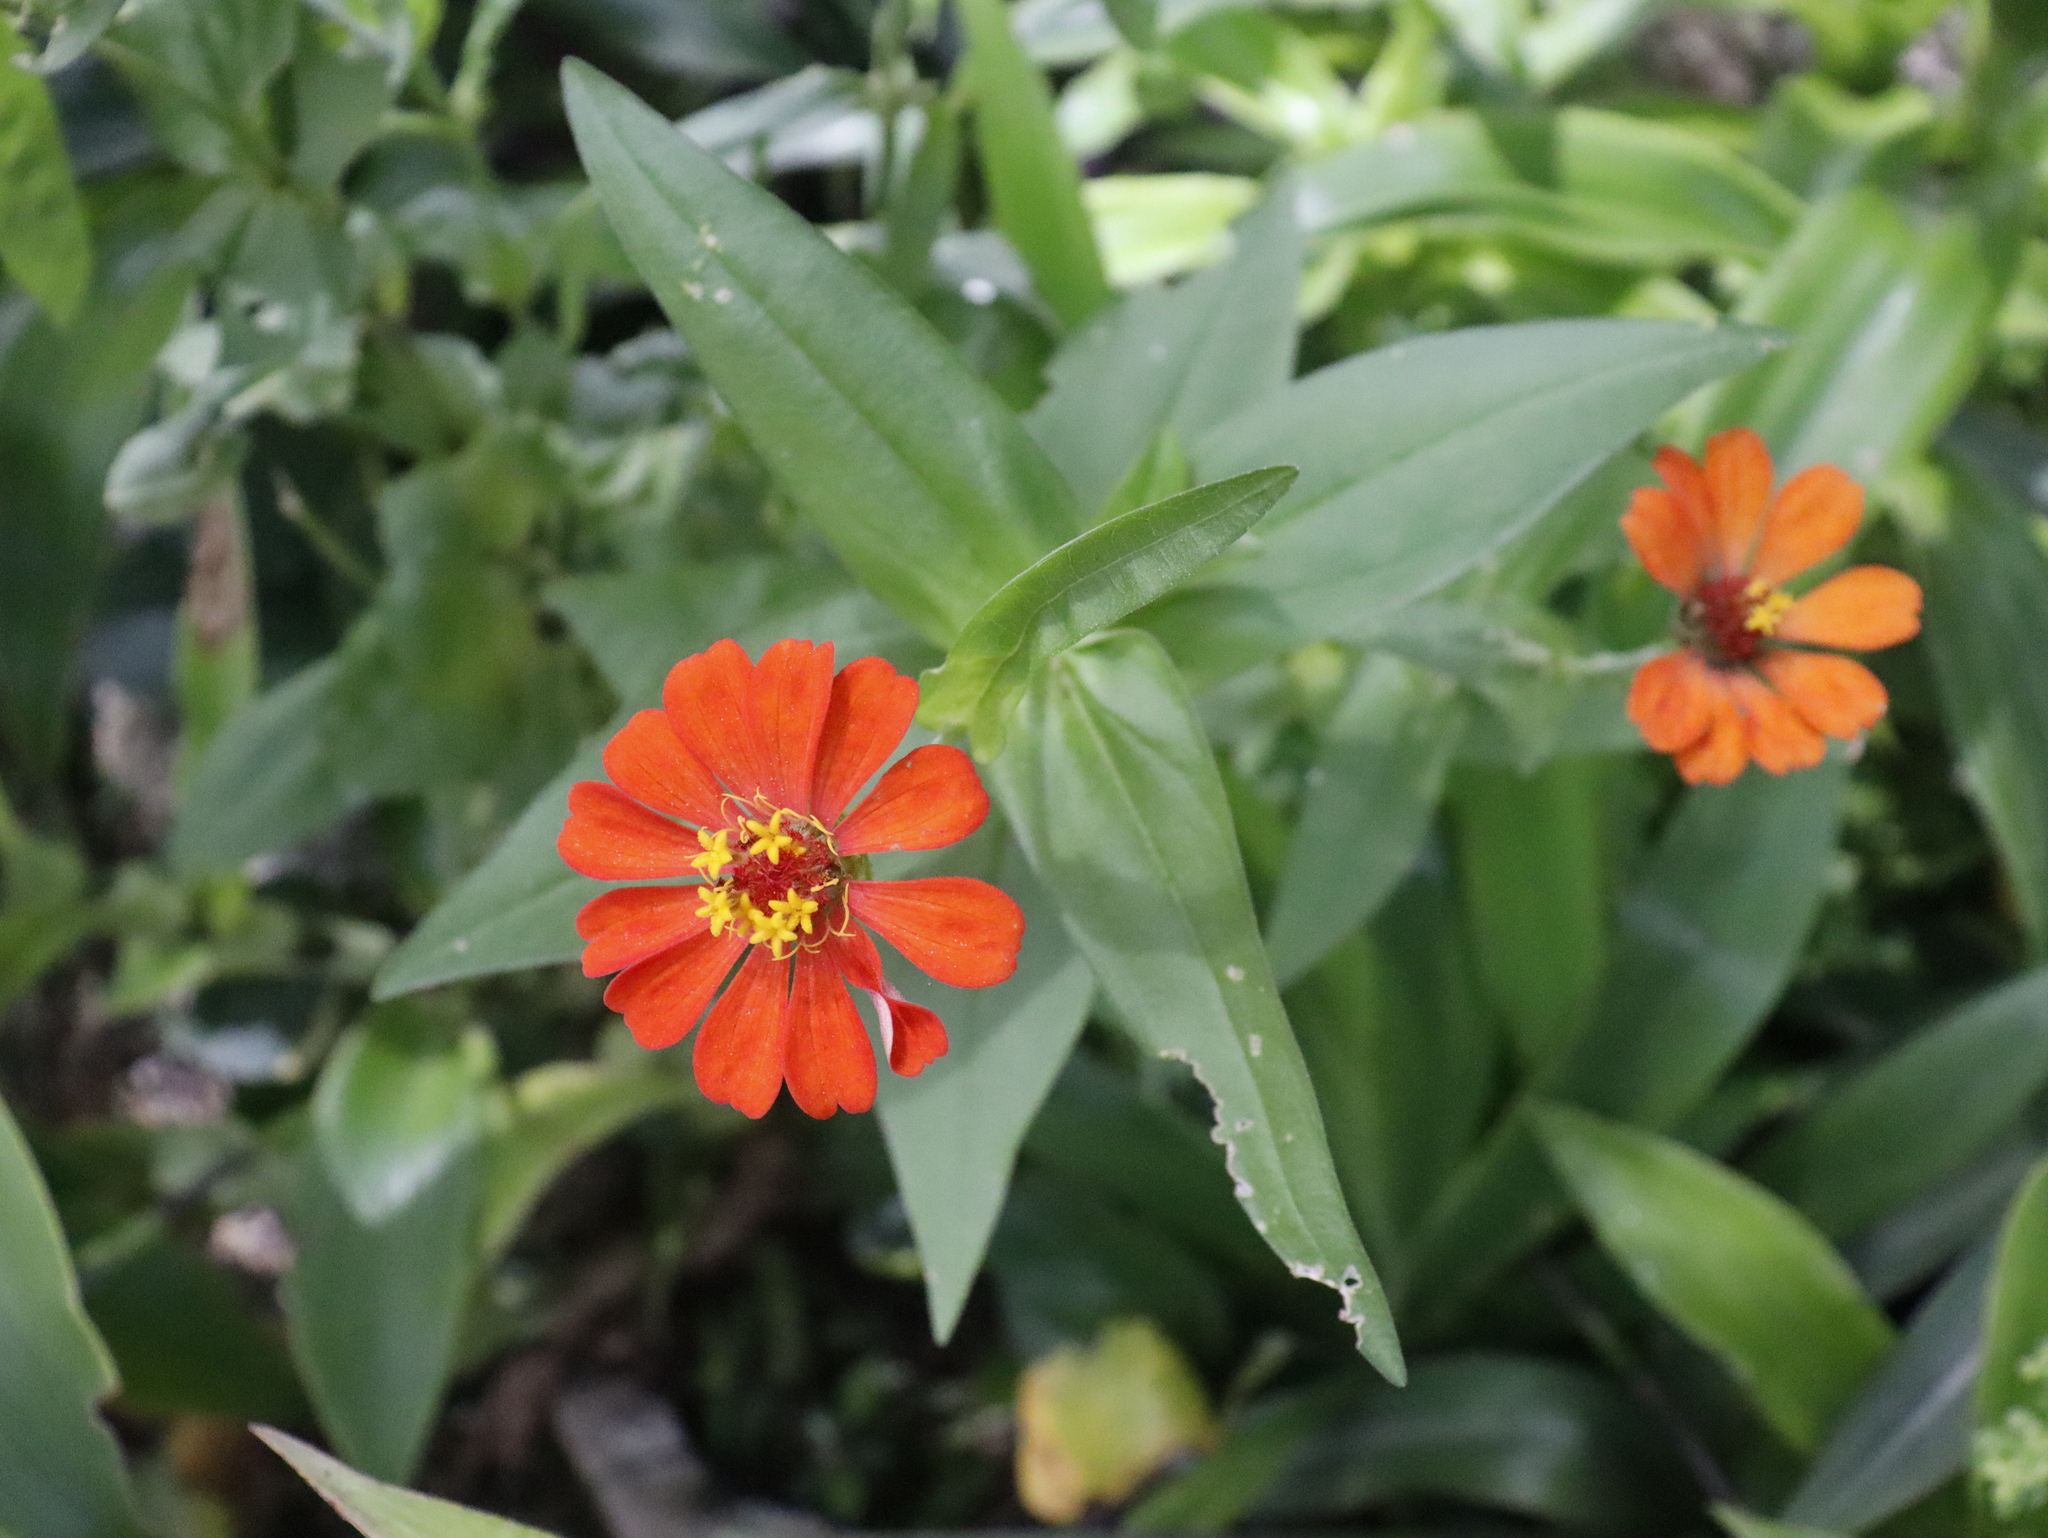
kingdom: Plantae
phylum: Tracheophyta
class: Magnoliopsida
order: Asterales
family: Asteraceae
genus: Zinnia
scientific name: Zinnia elegans
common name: Youth-and-age
